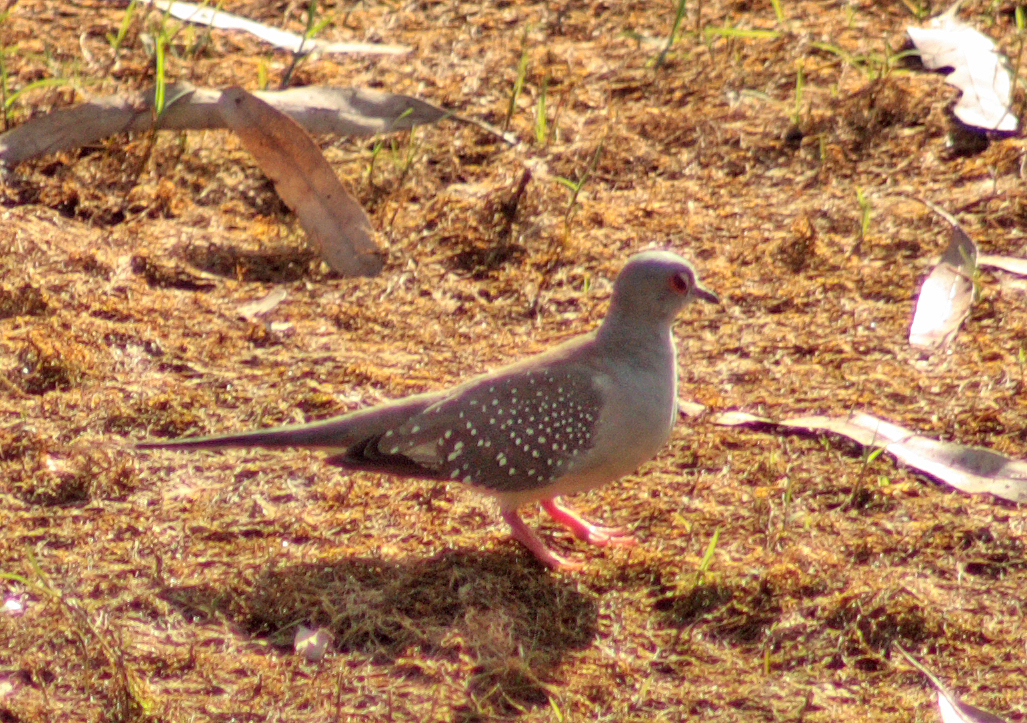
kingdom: Animalia
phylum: Chordata
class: Aves
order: Columbiformes
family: Columbidae
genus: Geopelia
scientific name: Geopelia cuneata
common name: Diamond dove
